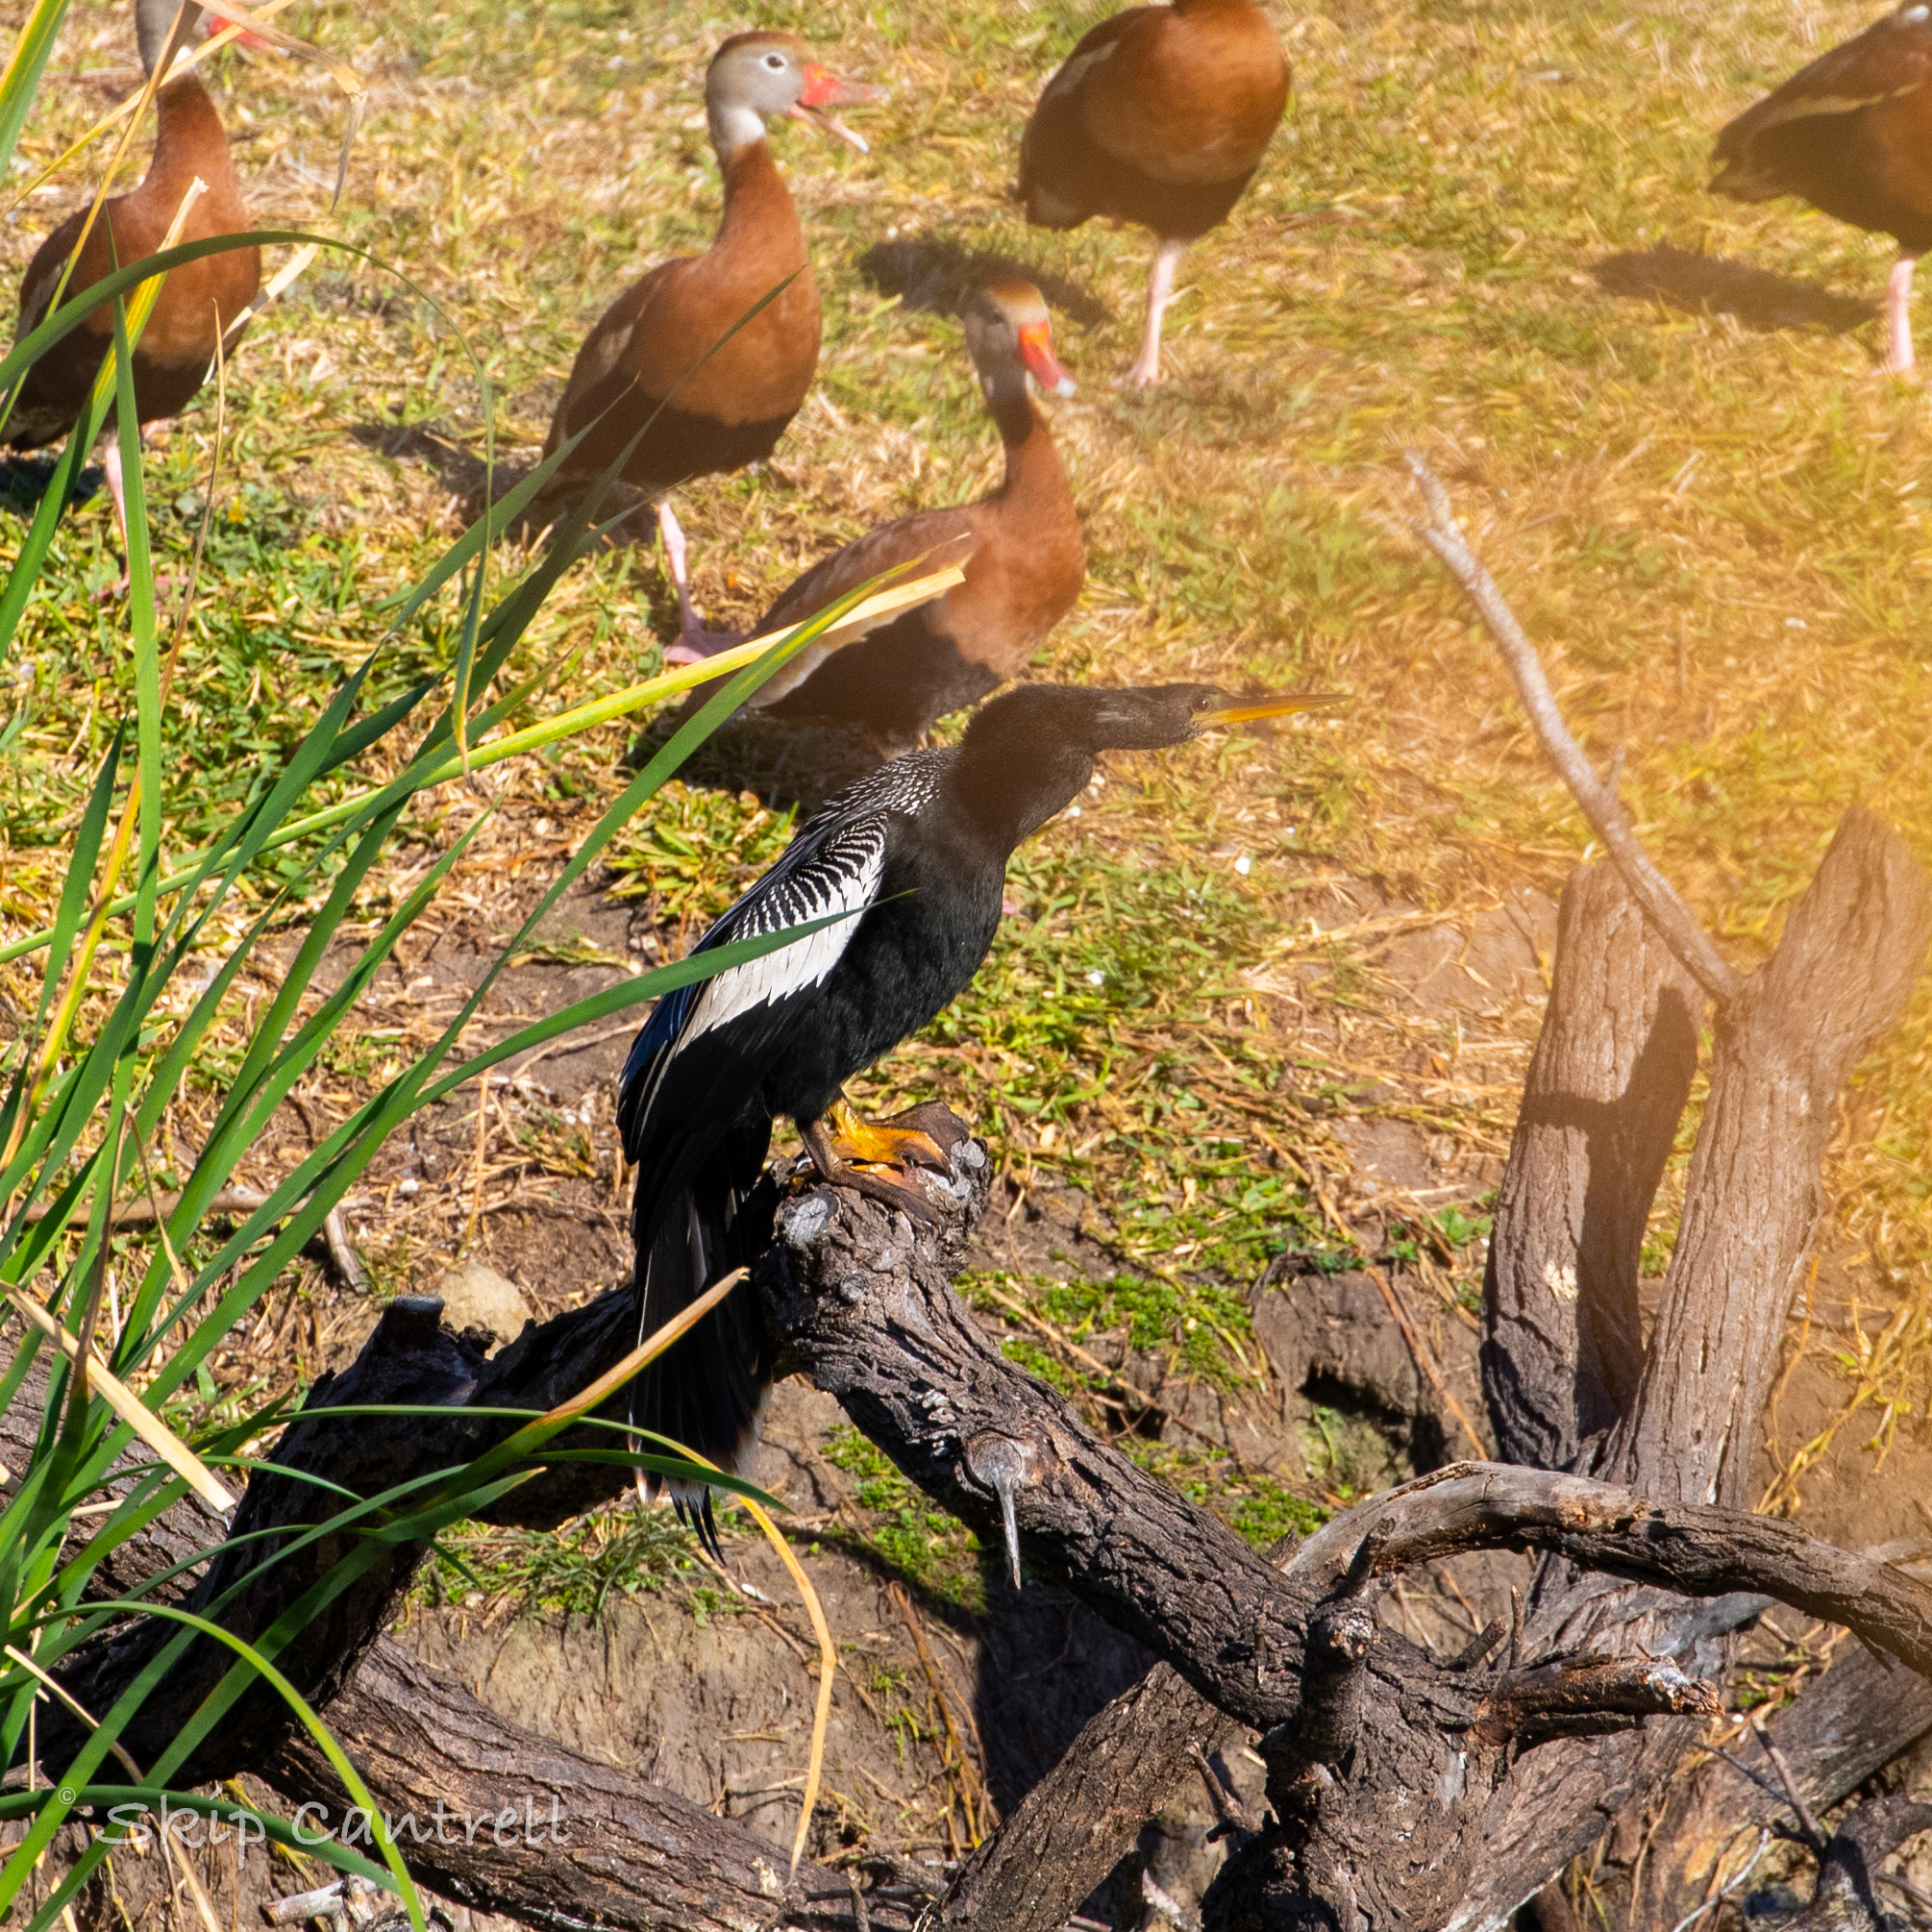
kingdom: Animalia
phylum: Chordata
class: Aves
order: Suliformes
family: Anhingidae
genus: Anhinga
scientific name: Anhinga anhinga
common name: Anhinga
